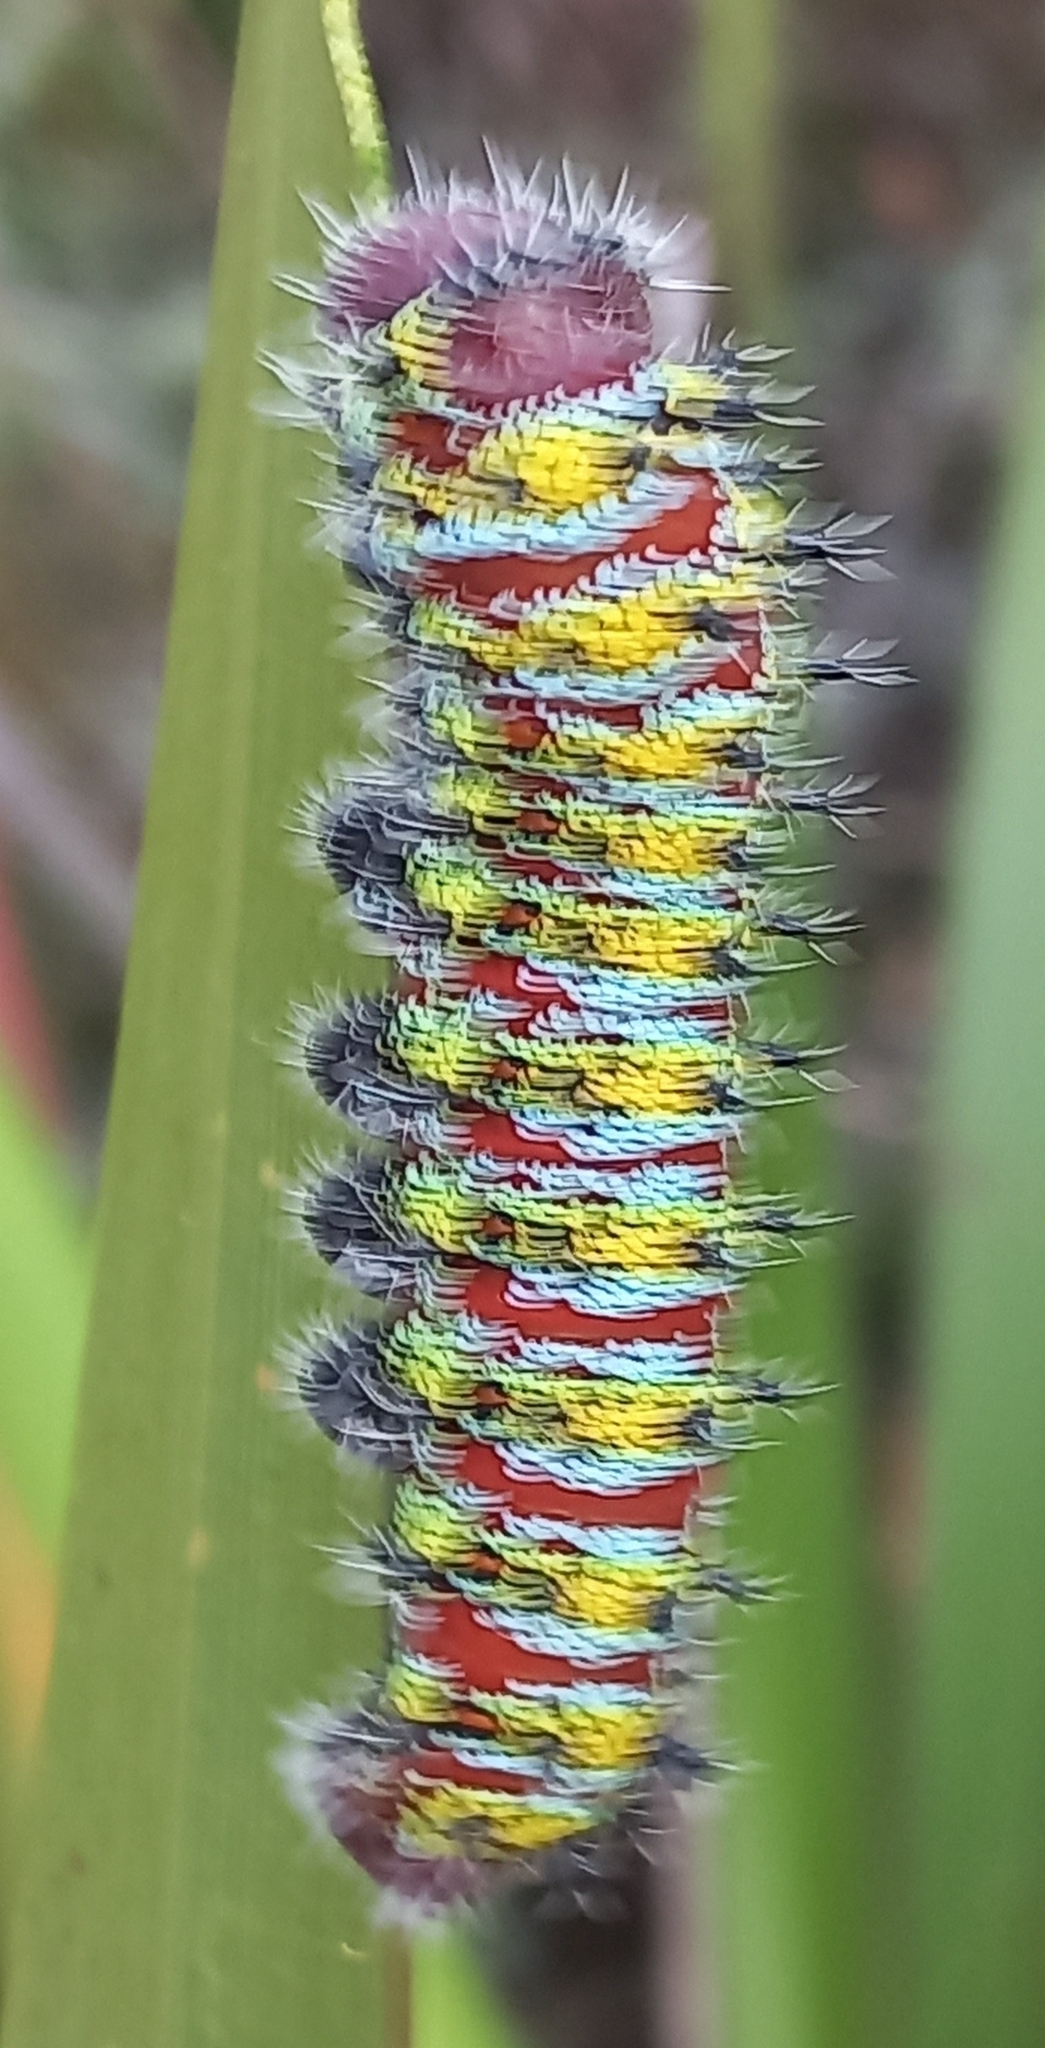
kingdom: Animalia
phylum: Arthropoda
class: Insecta
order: Lepidoptera
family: Saturniidae
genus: Nudaurelia
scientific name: Nudaurelia cytherea
